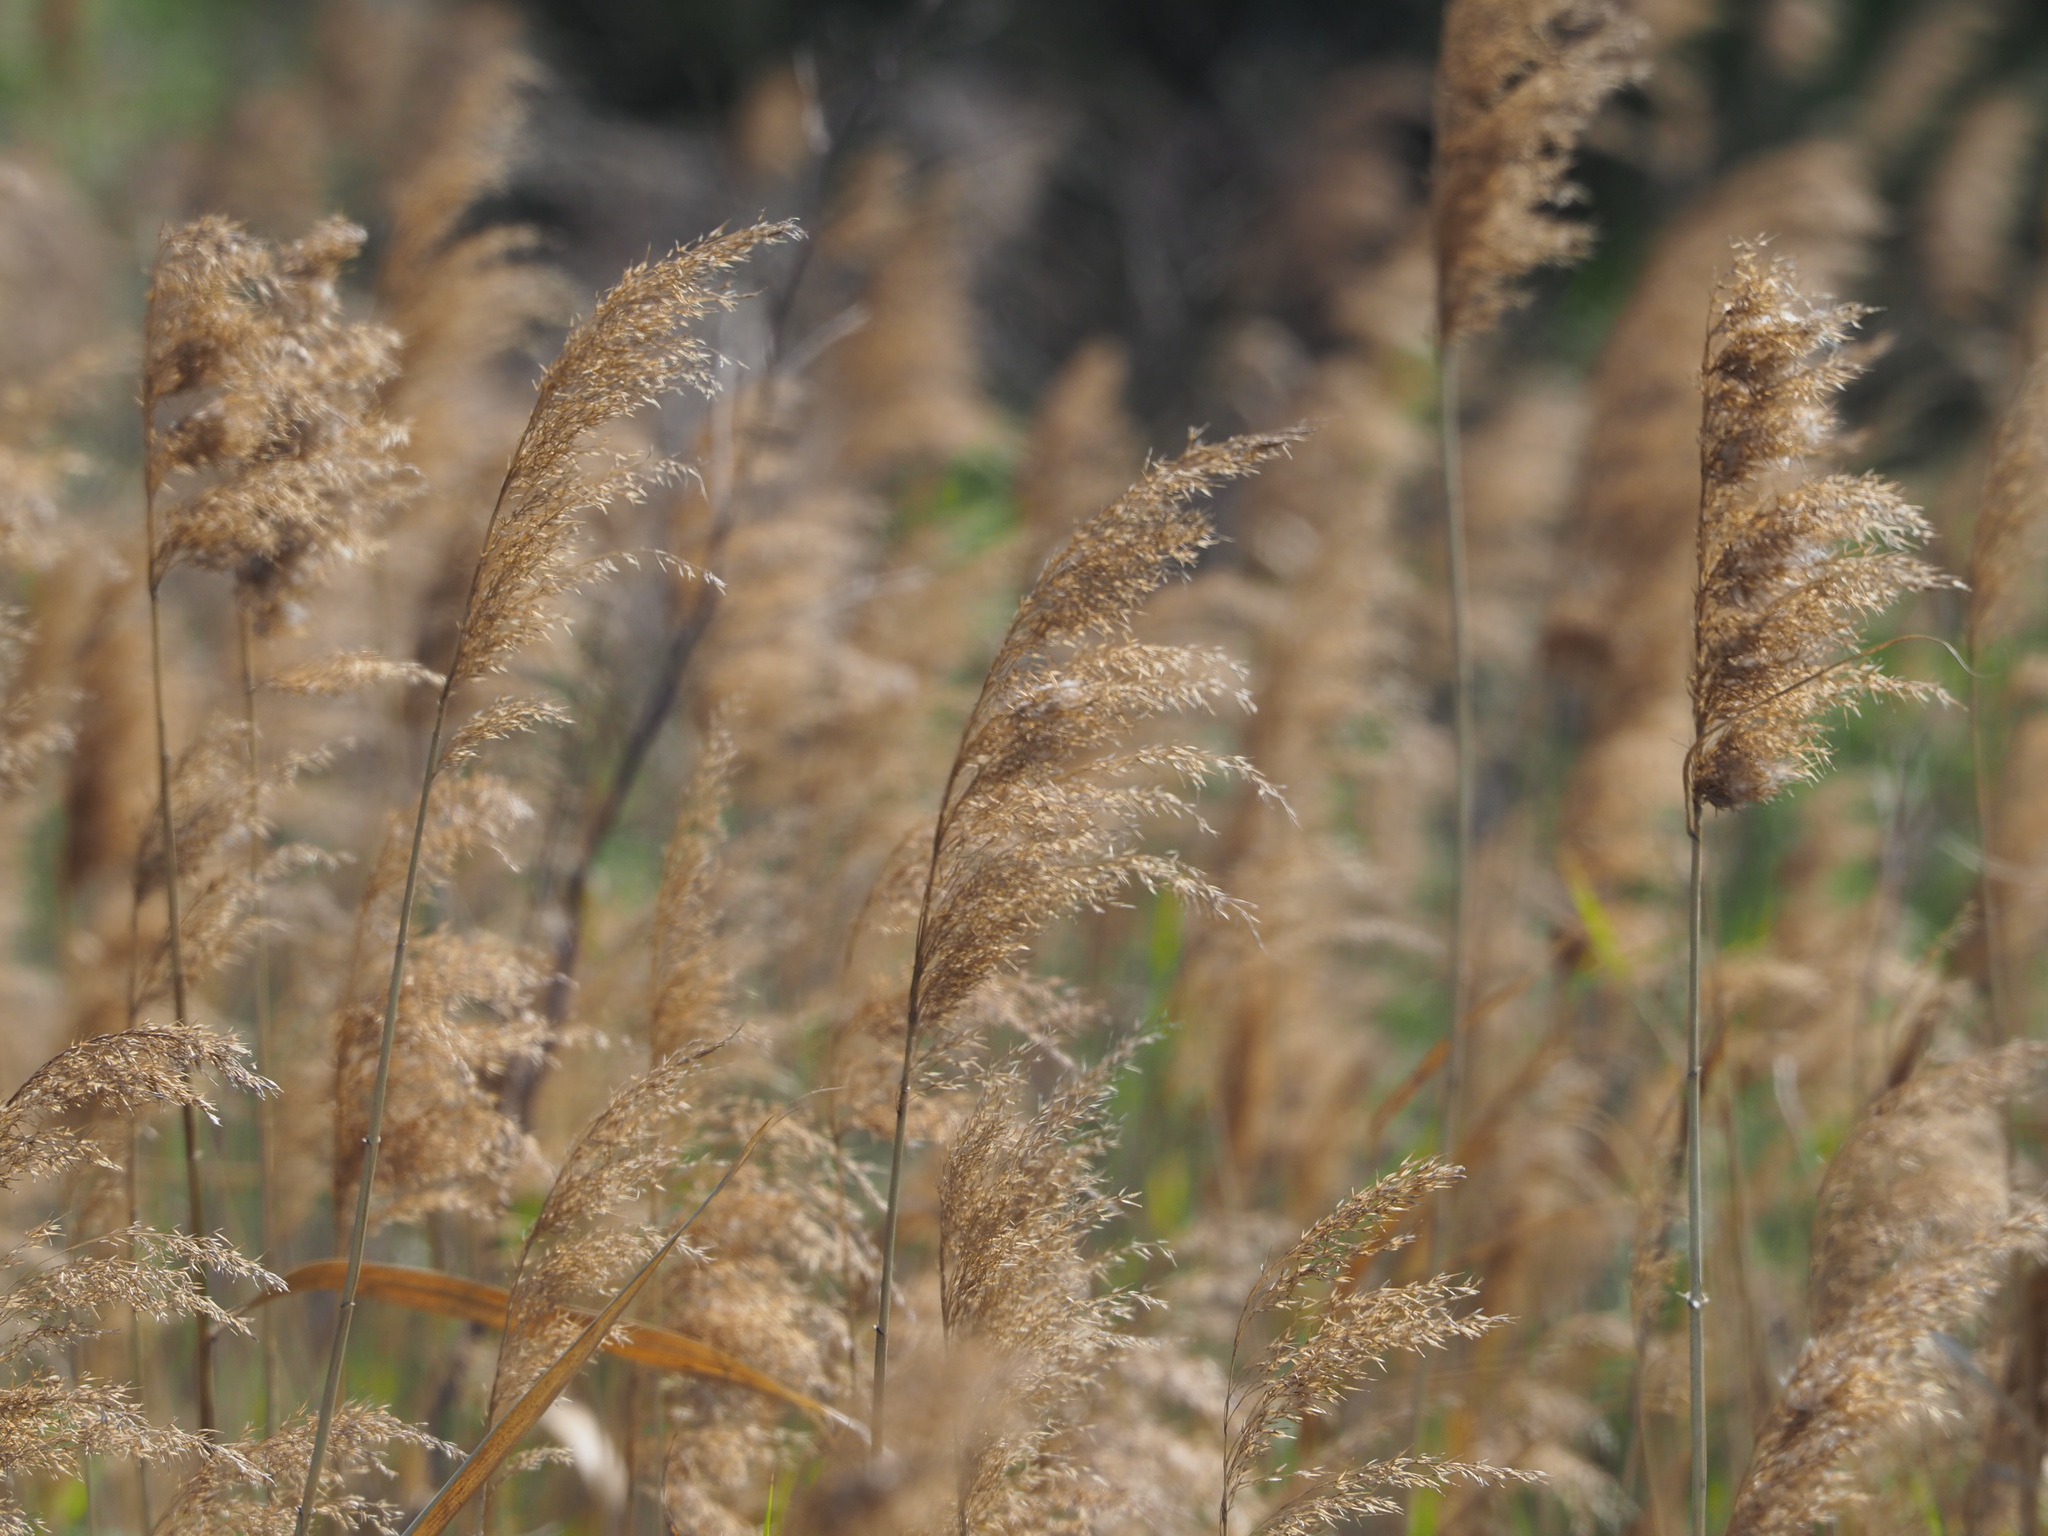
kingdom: Plantae
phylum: Tracheophyta
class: Liliopsida
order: Poales
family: Poaceae
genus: Phragmites
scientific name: Phragmites australis
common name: Common reed
